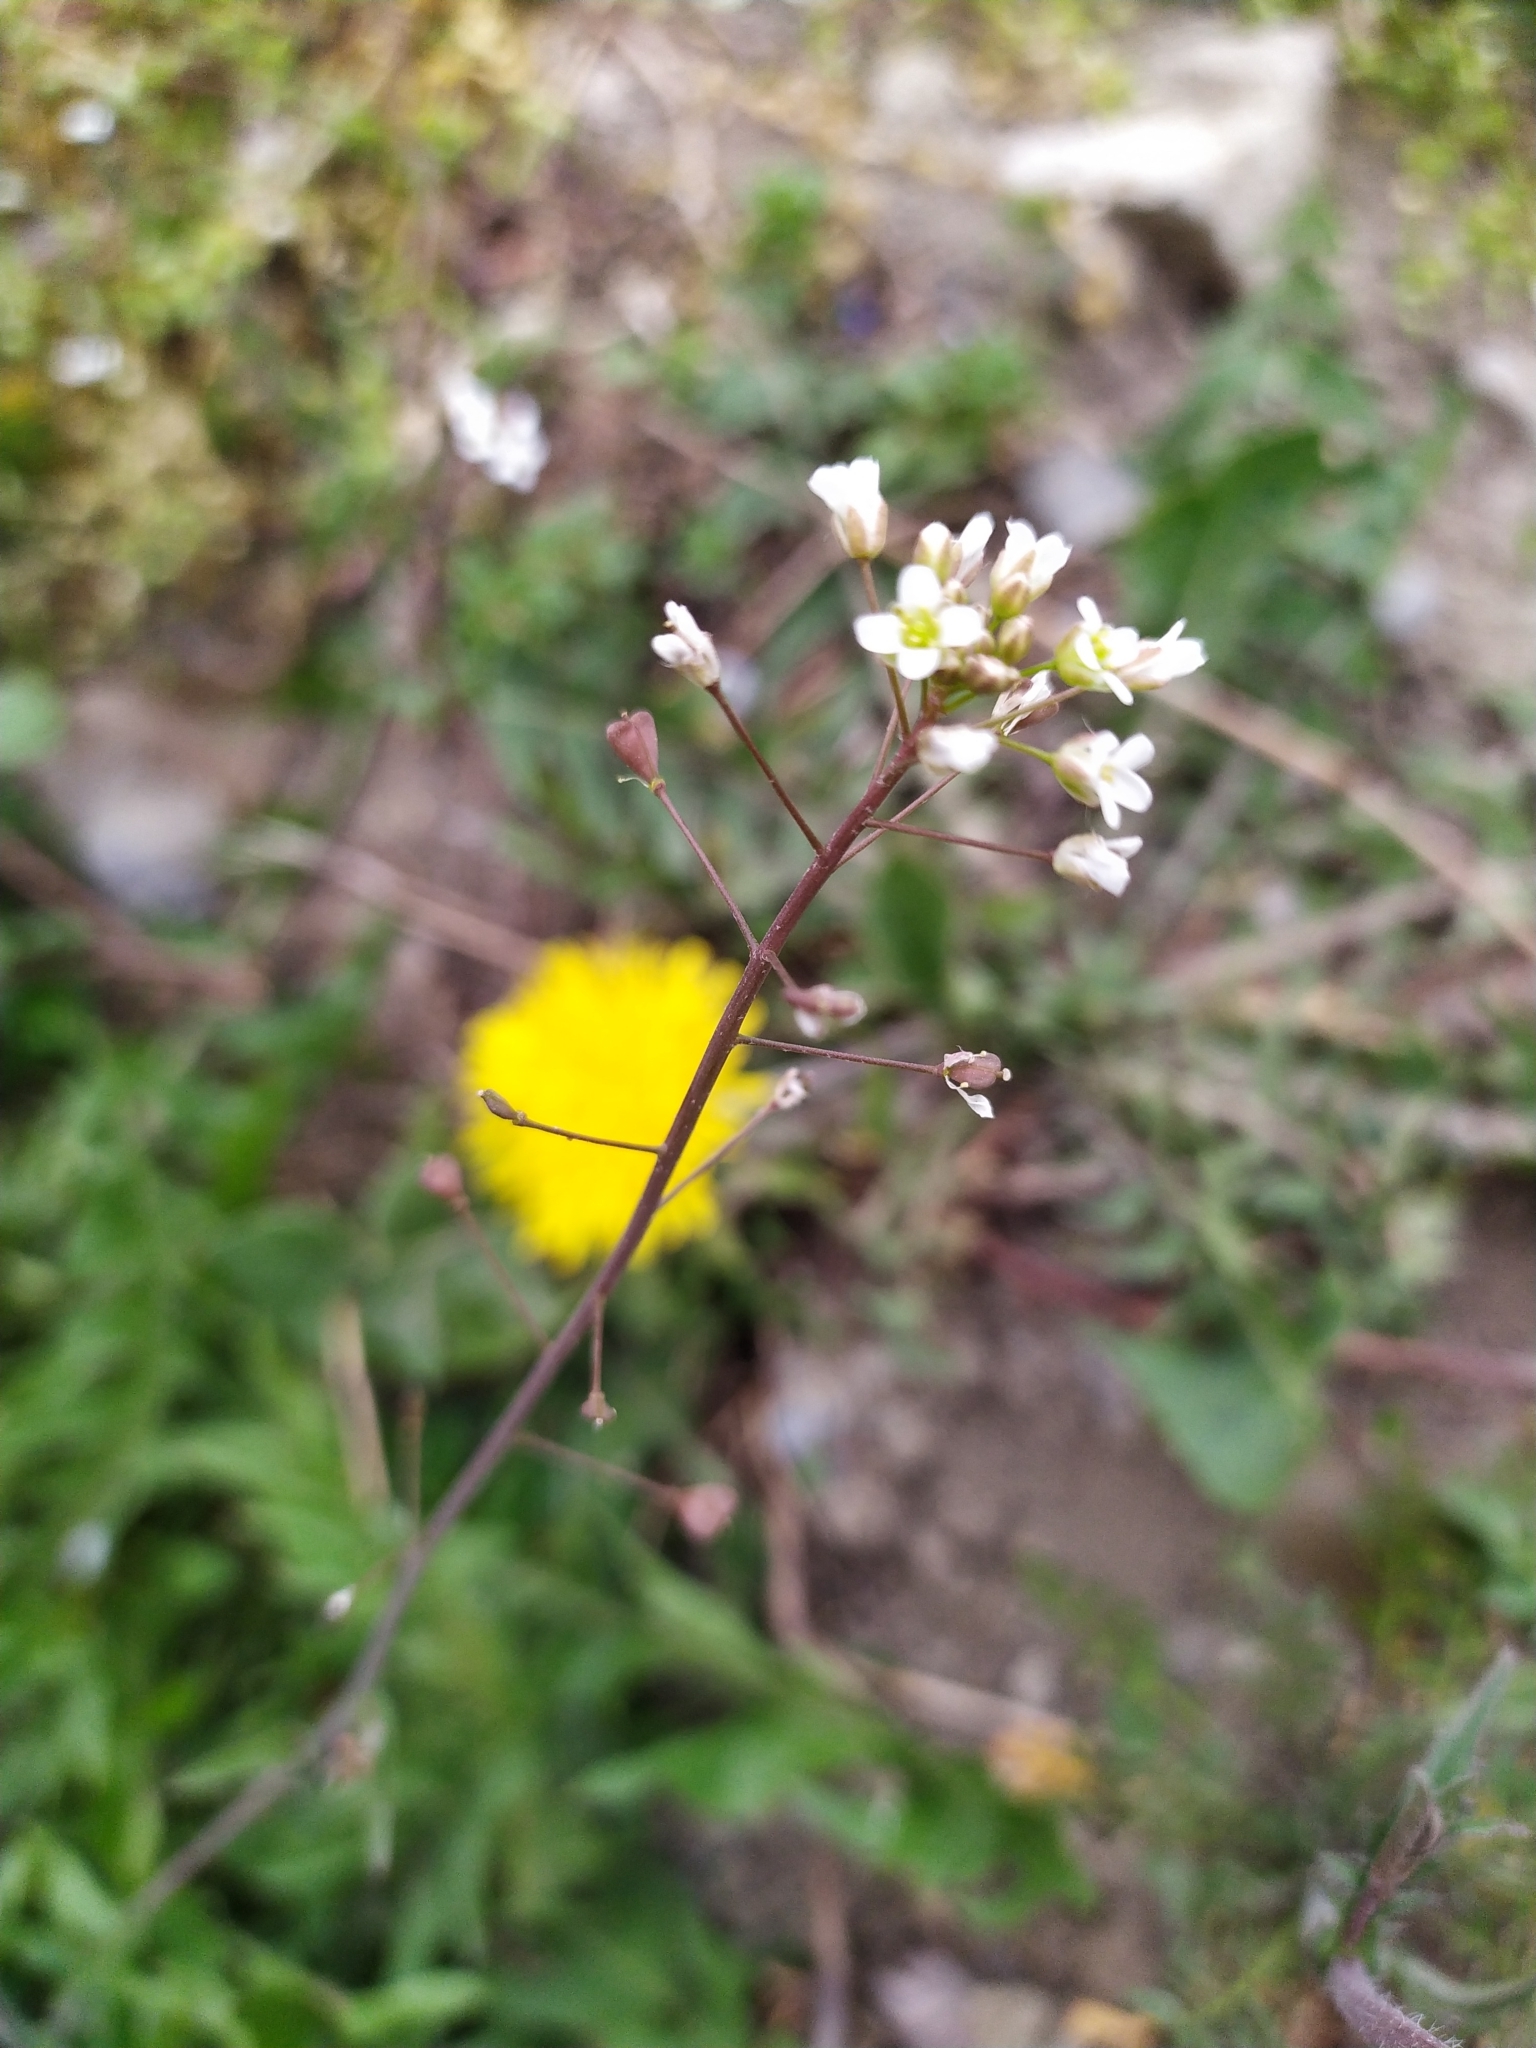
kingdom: Plantae
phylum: Tracheophyta
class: Magnoliopsida
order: Brassicales
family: Brassicaceae
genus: Capsella
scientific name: Capsella bursa-pastoris
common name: Shepherd's purse
